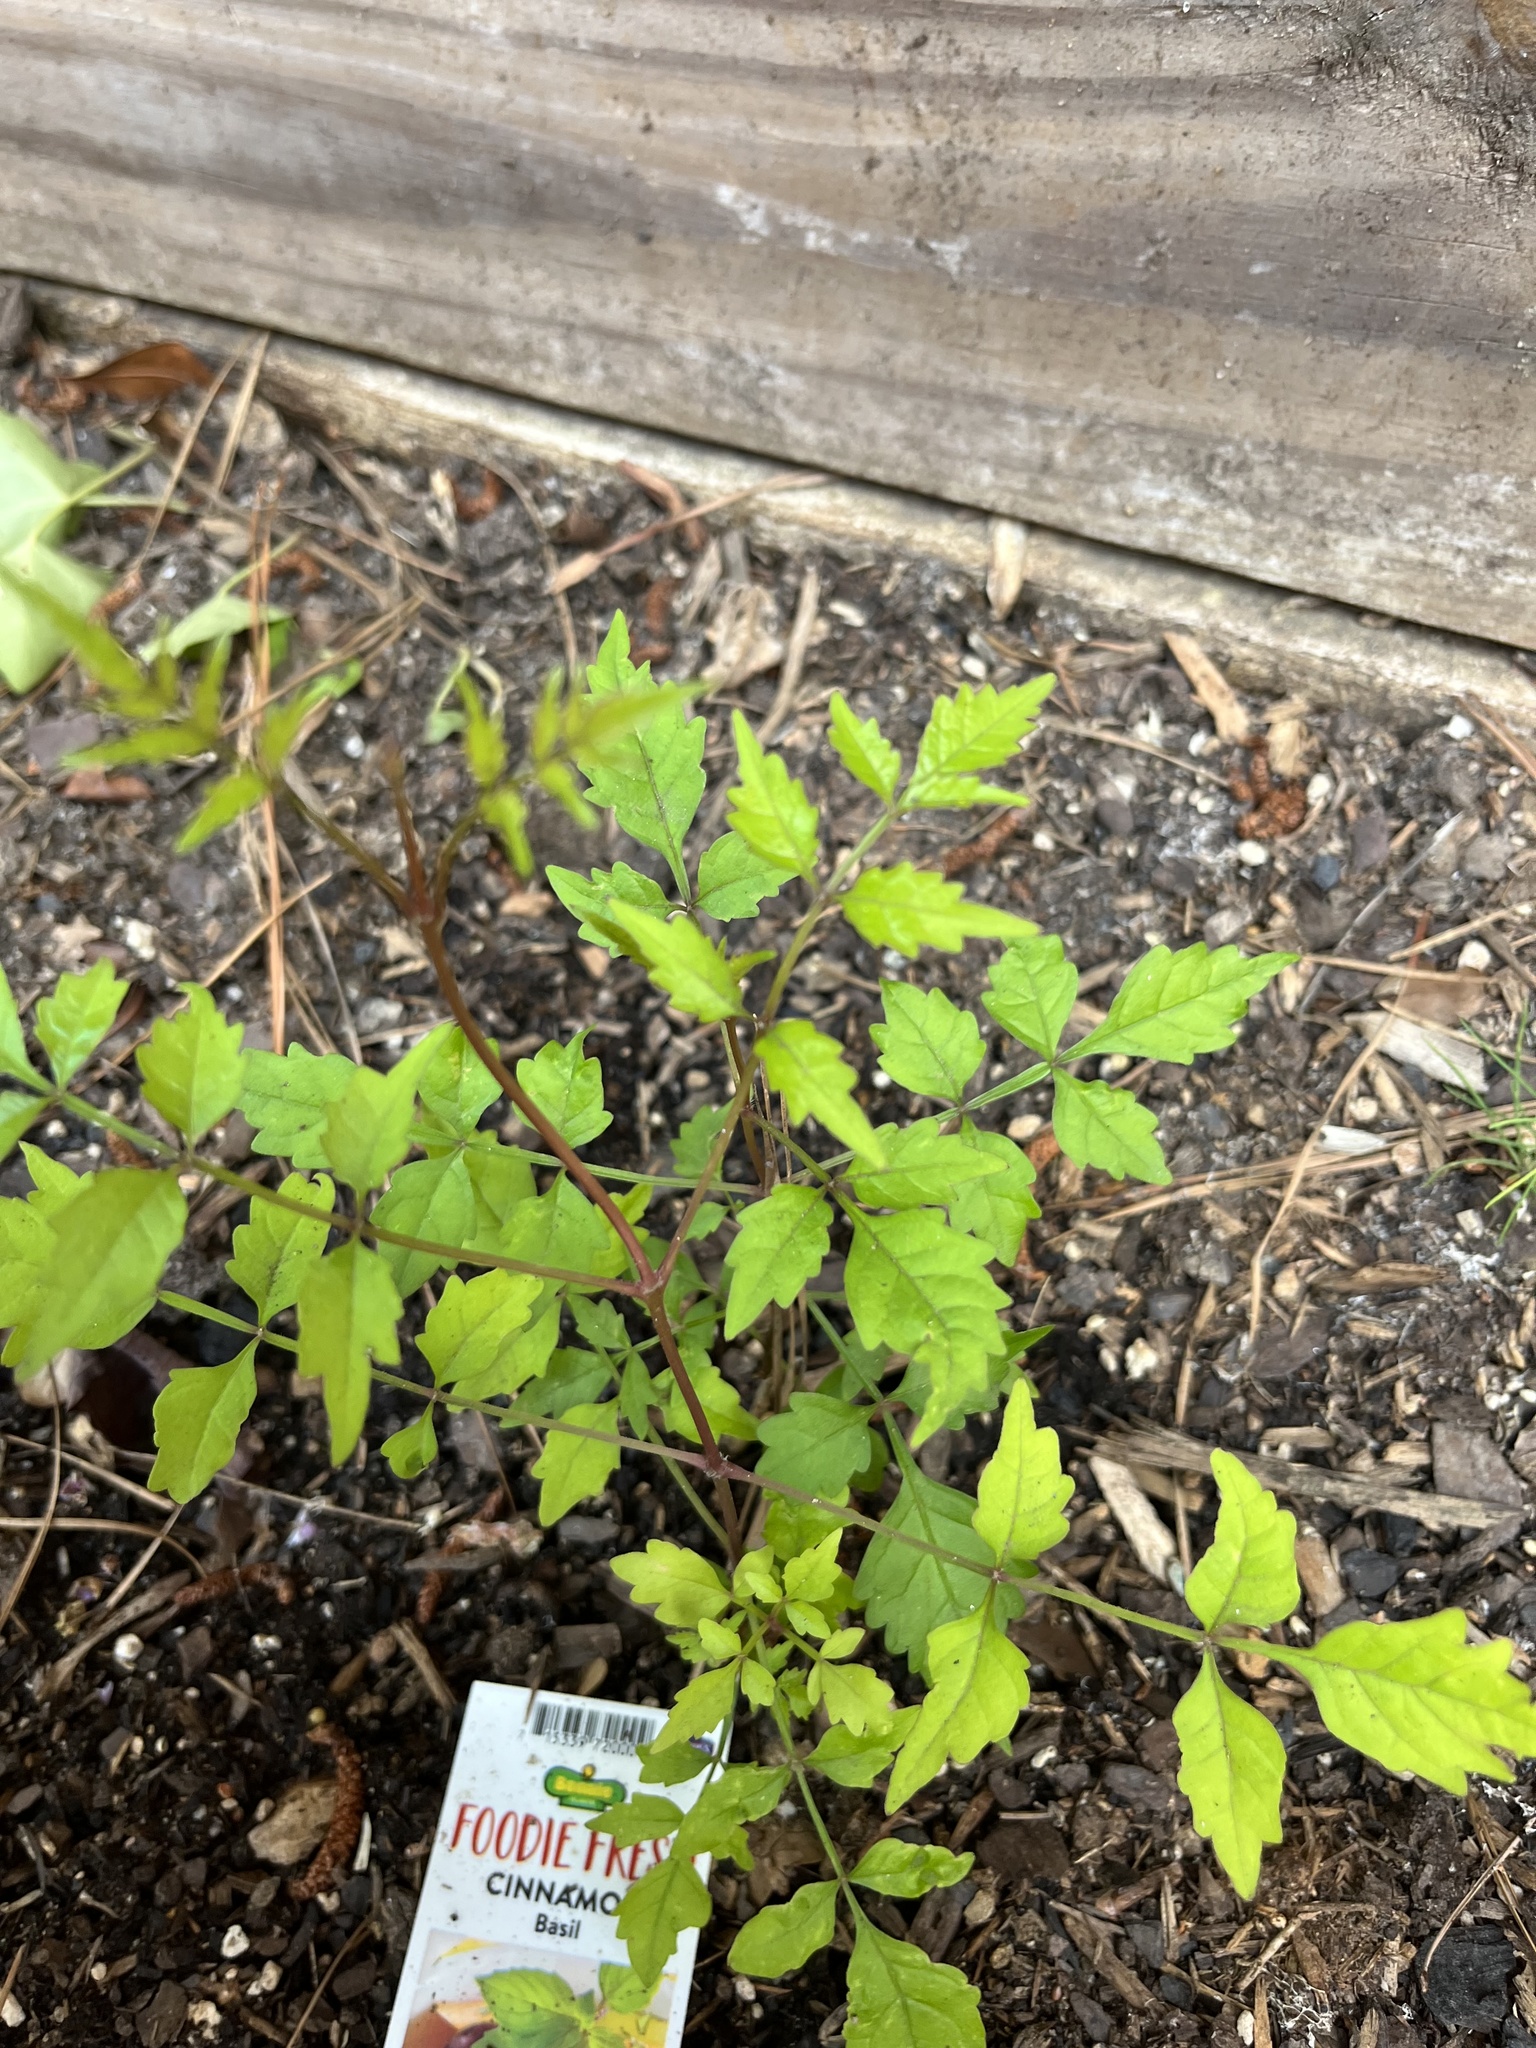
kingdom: Plantae
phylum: Tracheophyta
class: Magnoliopsida
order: Lamiales
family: Bignoniaceae
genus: Campsis
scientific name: Campsis radicans
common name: Trumpet-creeper
